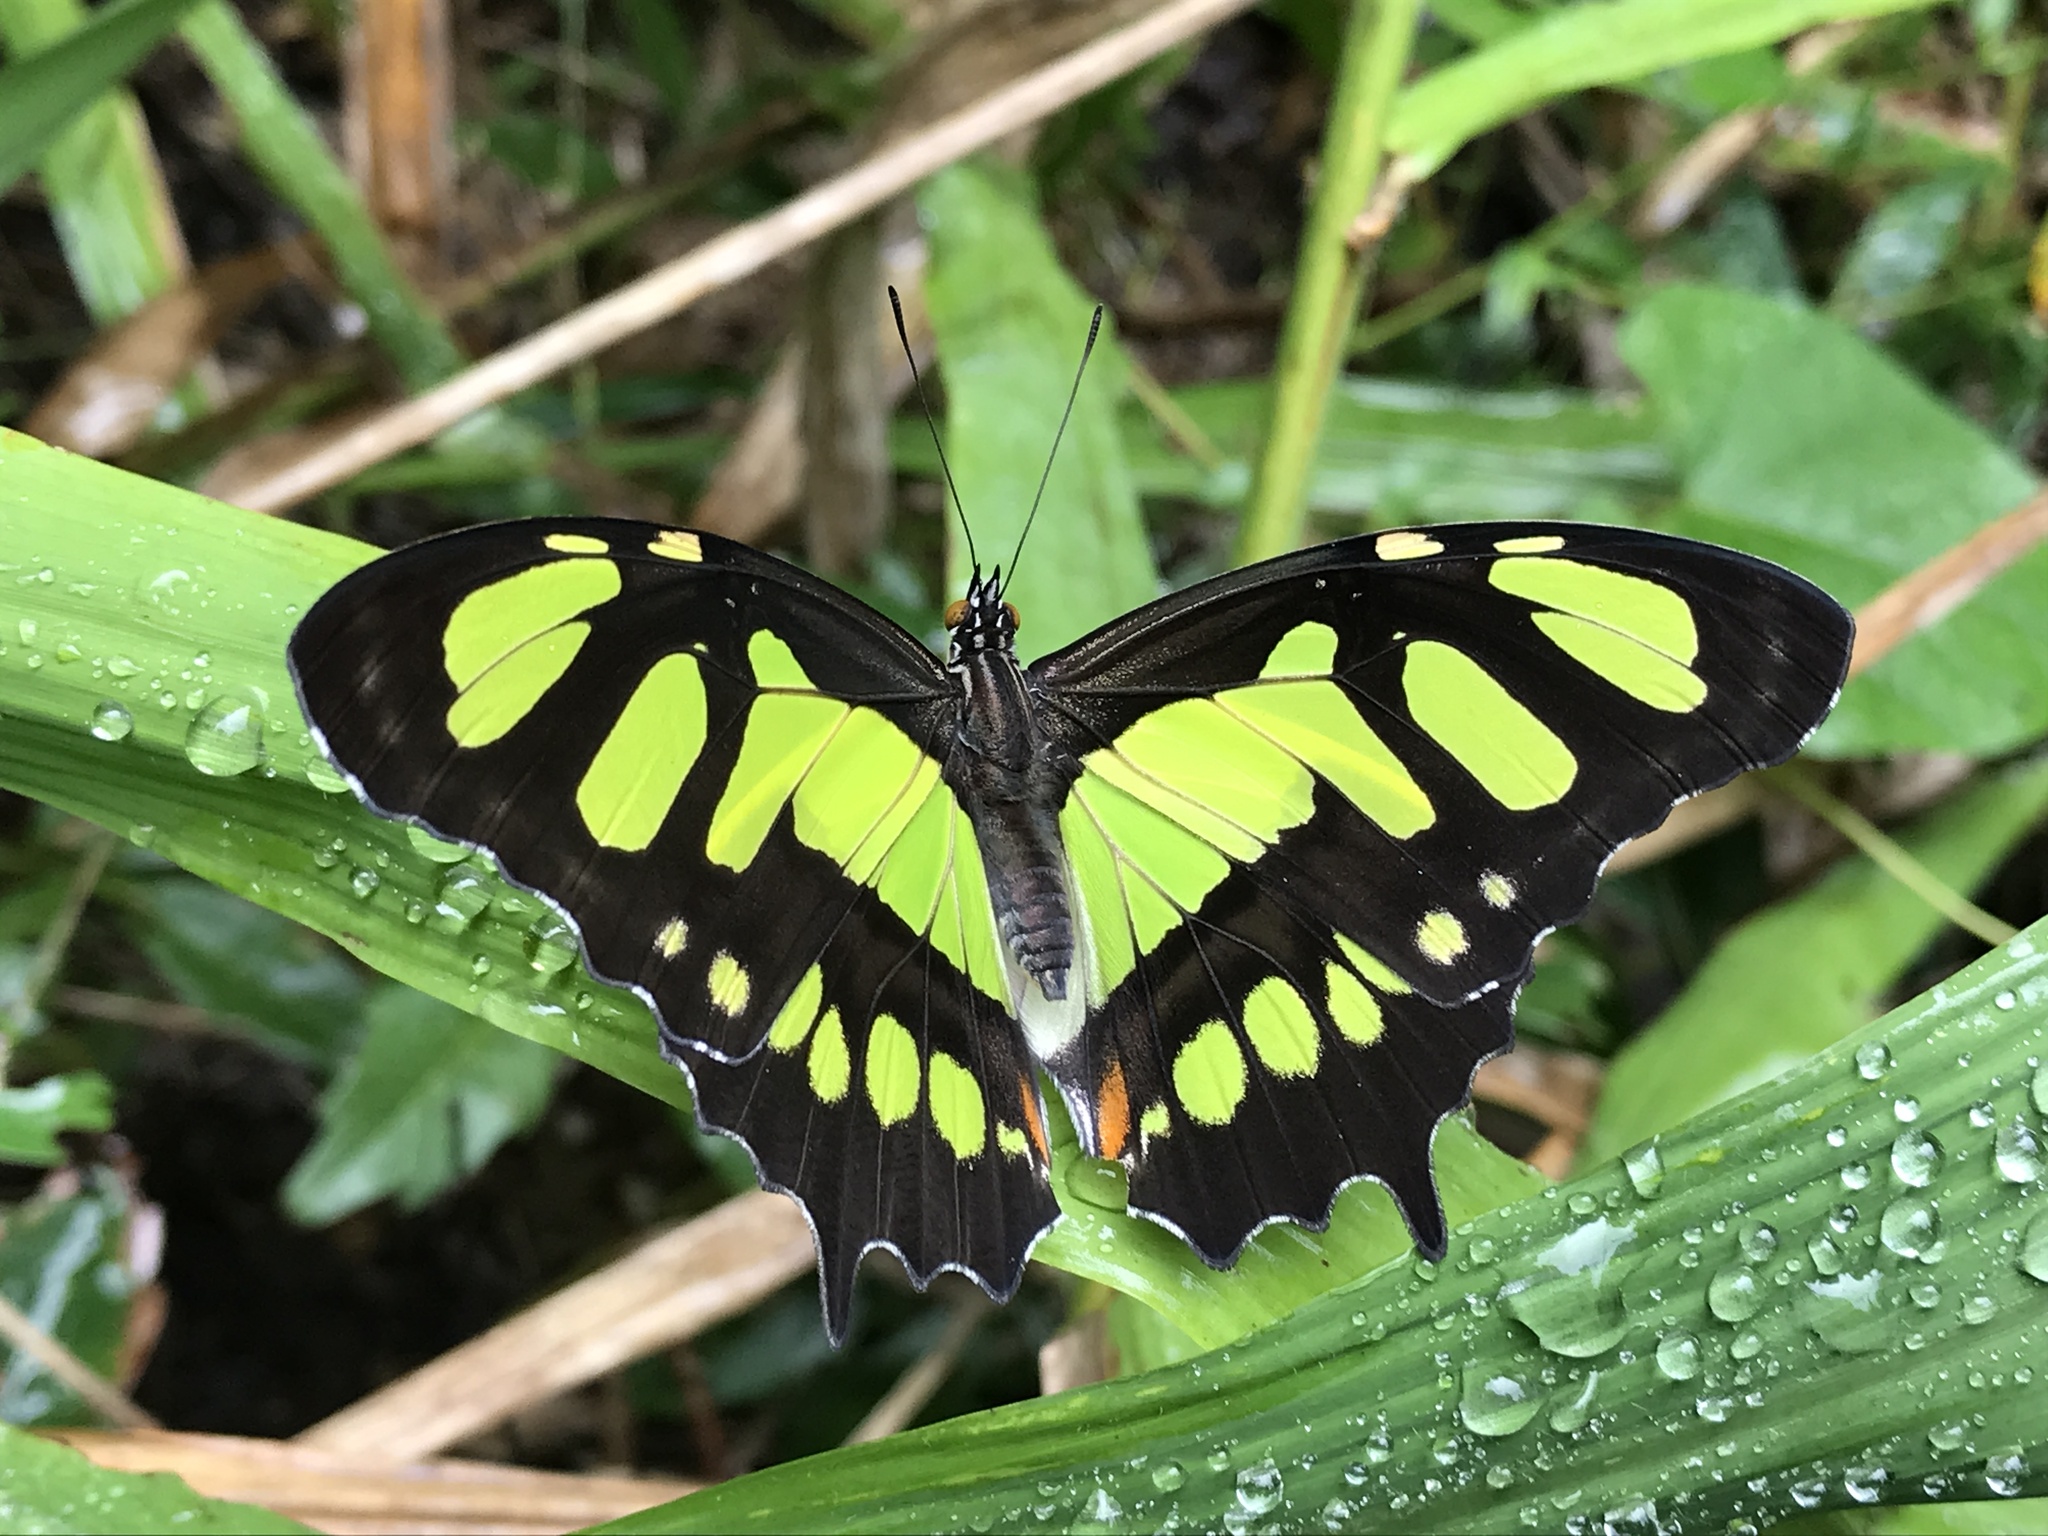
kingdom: Animalia
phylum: Arthropoda
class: Insecta
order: Lepidoptera
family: Nymphalidae
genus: Siproeta
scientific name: Siproeta stelenes
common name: Malachite
